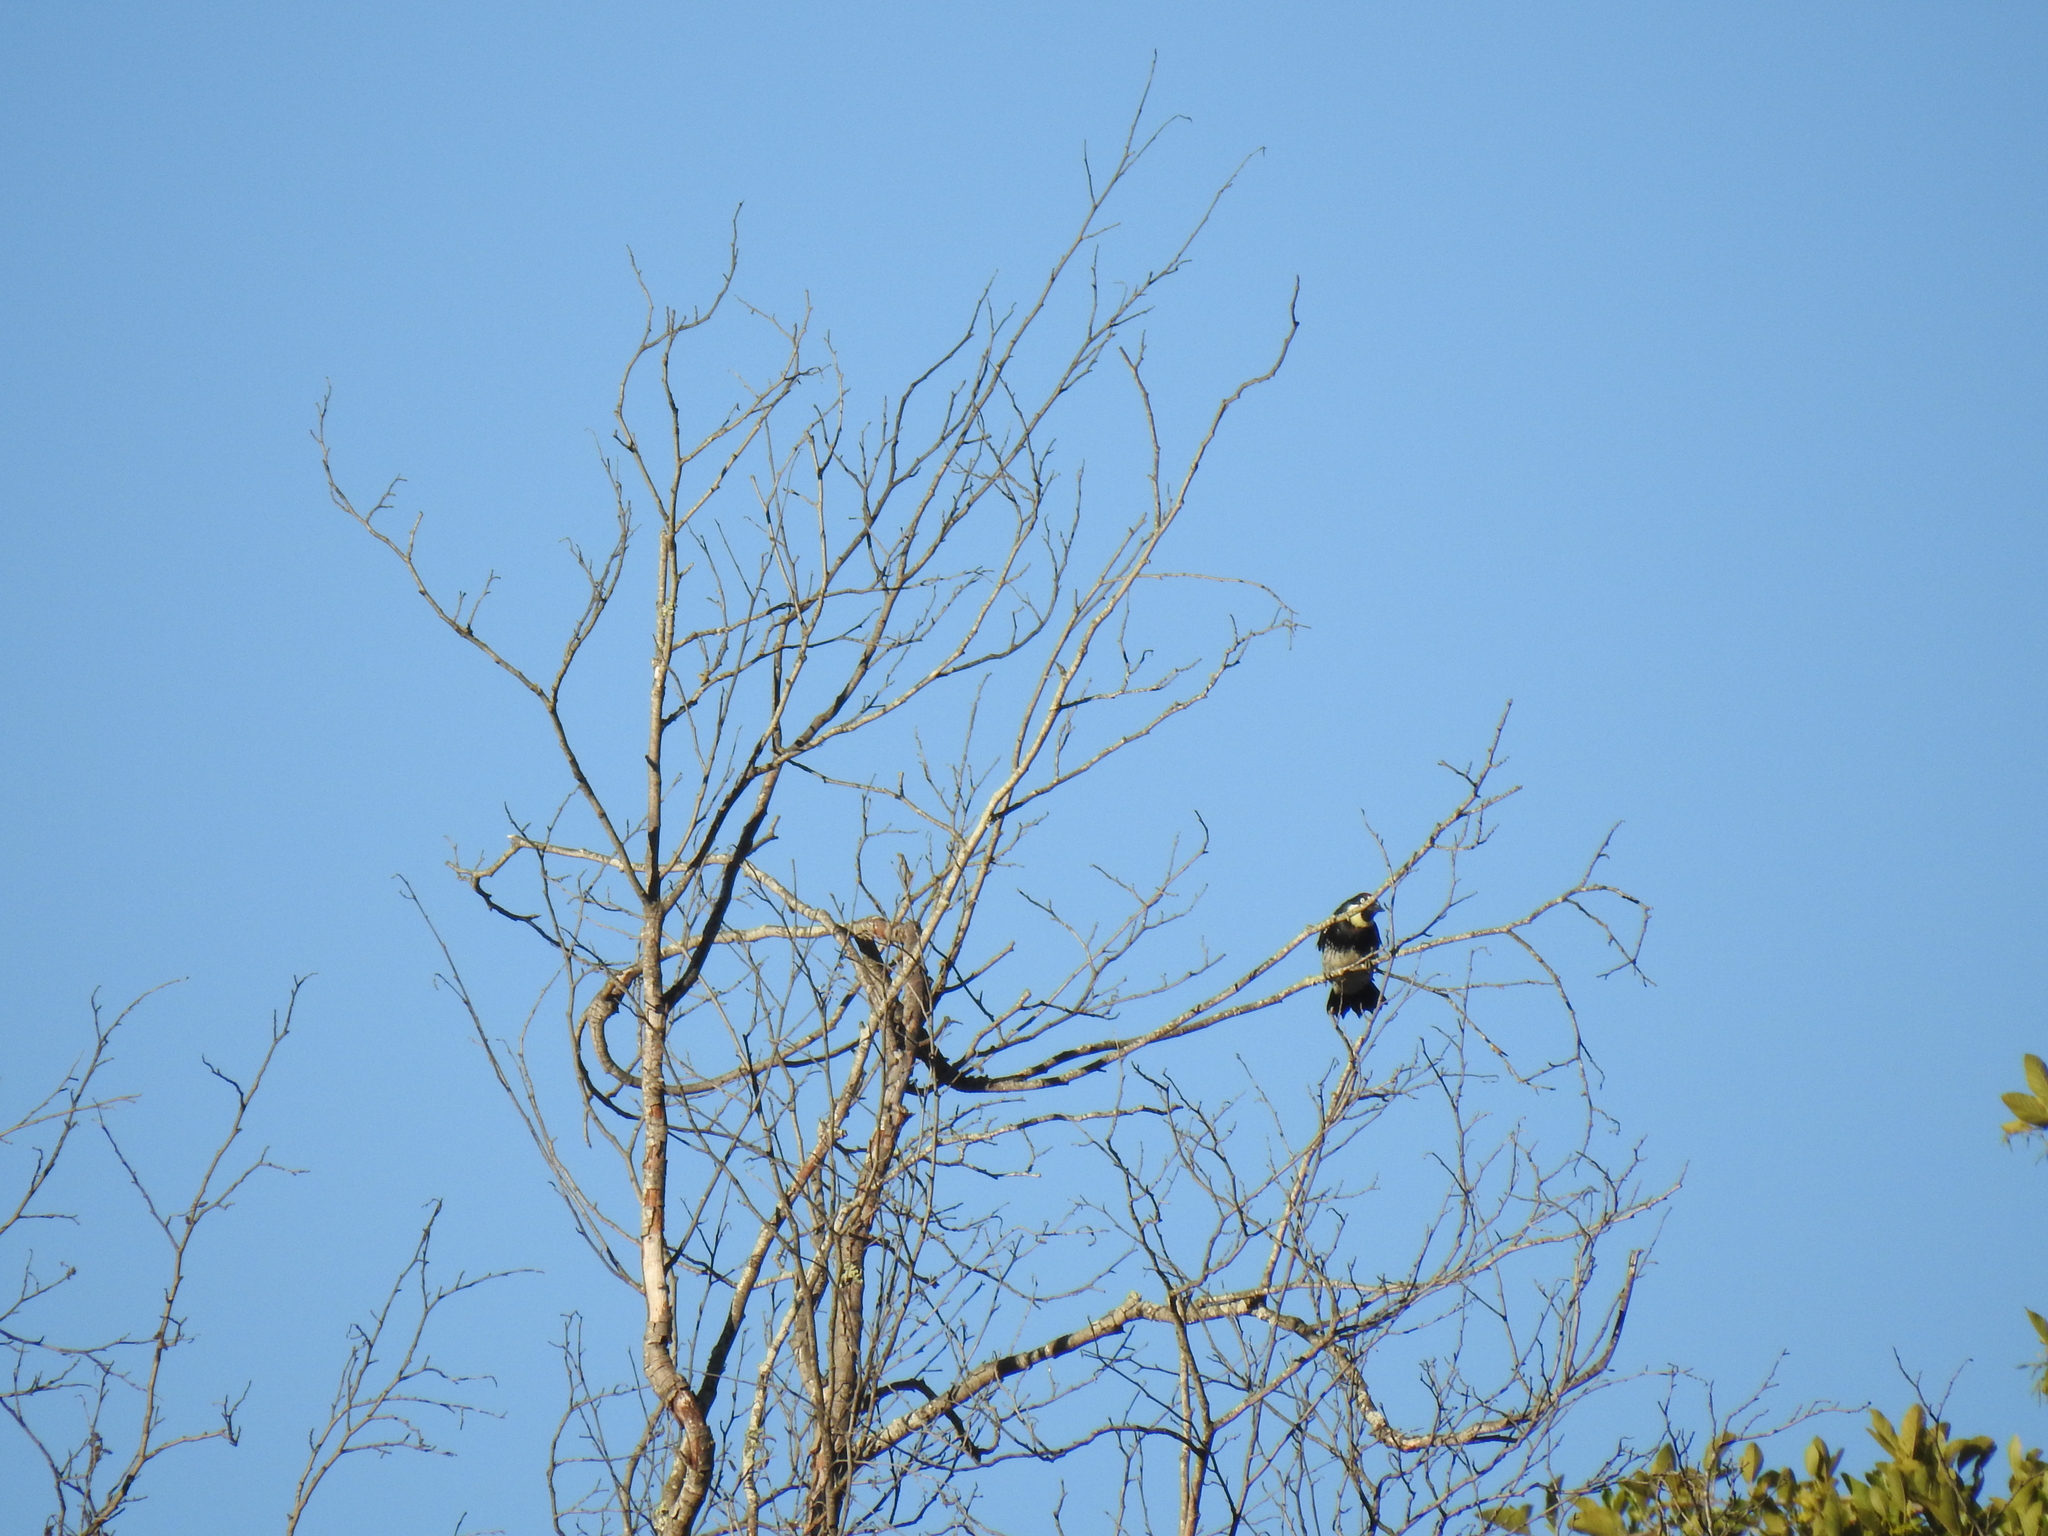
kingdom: Animalia
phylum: Chordata
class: Aves
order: Piciformes
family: Picidae
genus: Melanerpes
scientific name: Melanerpes formicivorus
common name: Acorn woodpecker
